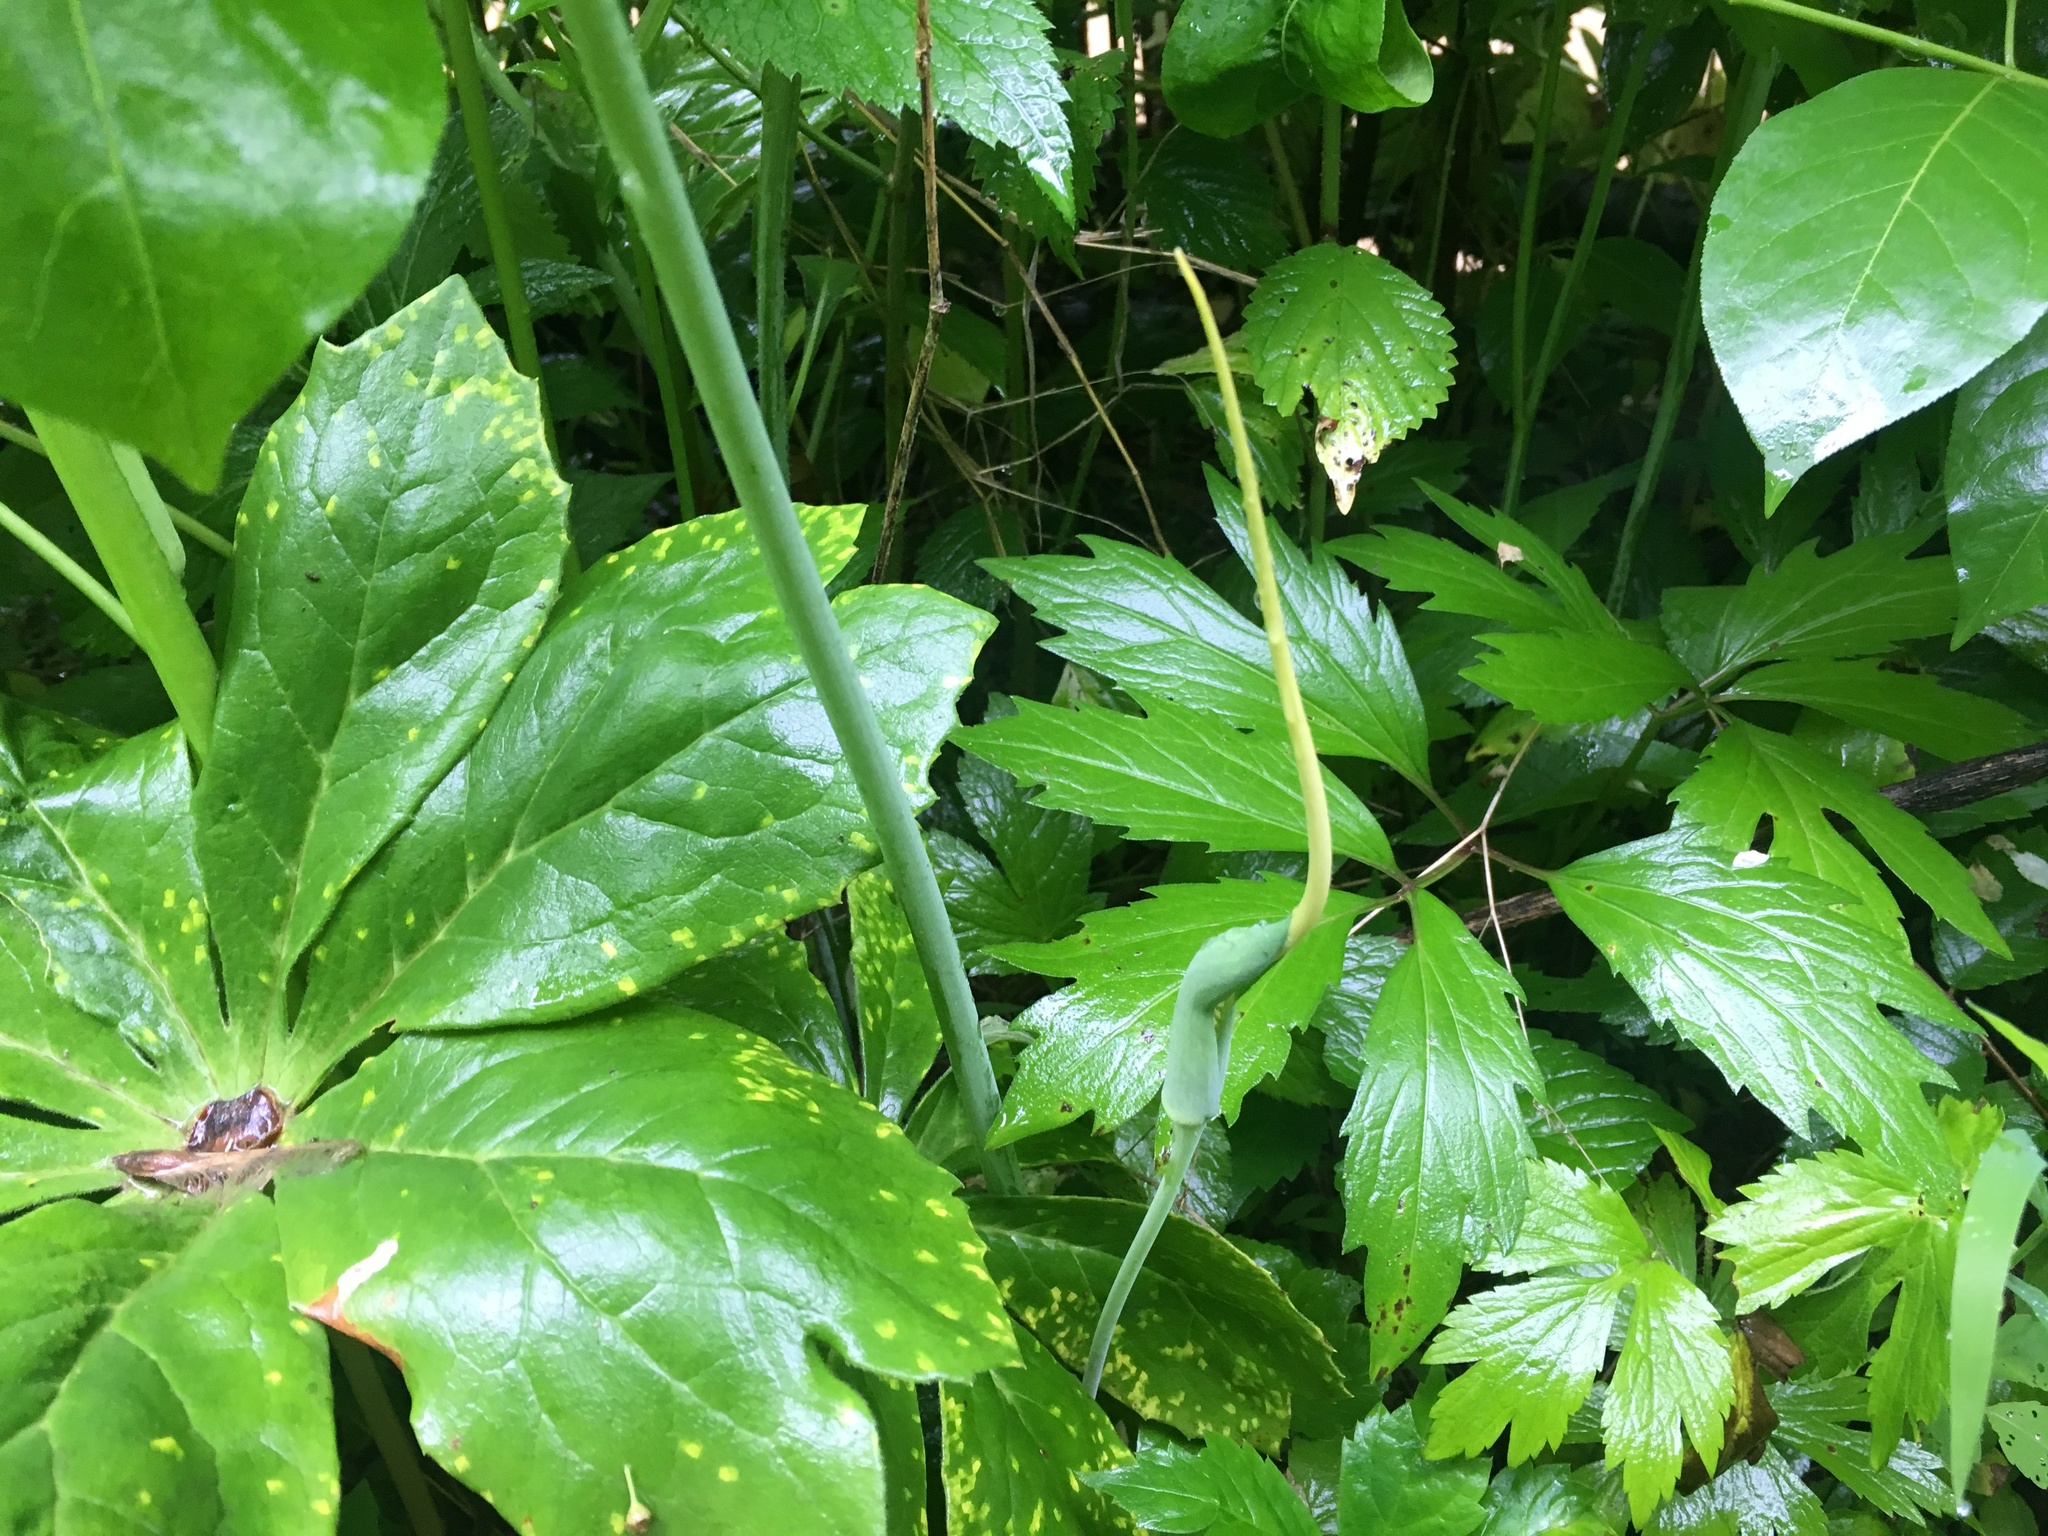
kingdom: Plantae
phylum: Tracheophyta
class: Liliopsida
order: Alismatales
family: Araceae
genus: Arisaema
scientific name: Arisaema dracontium
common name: Dragon-arum
